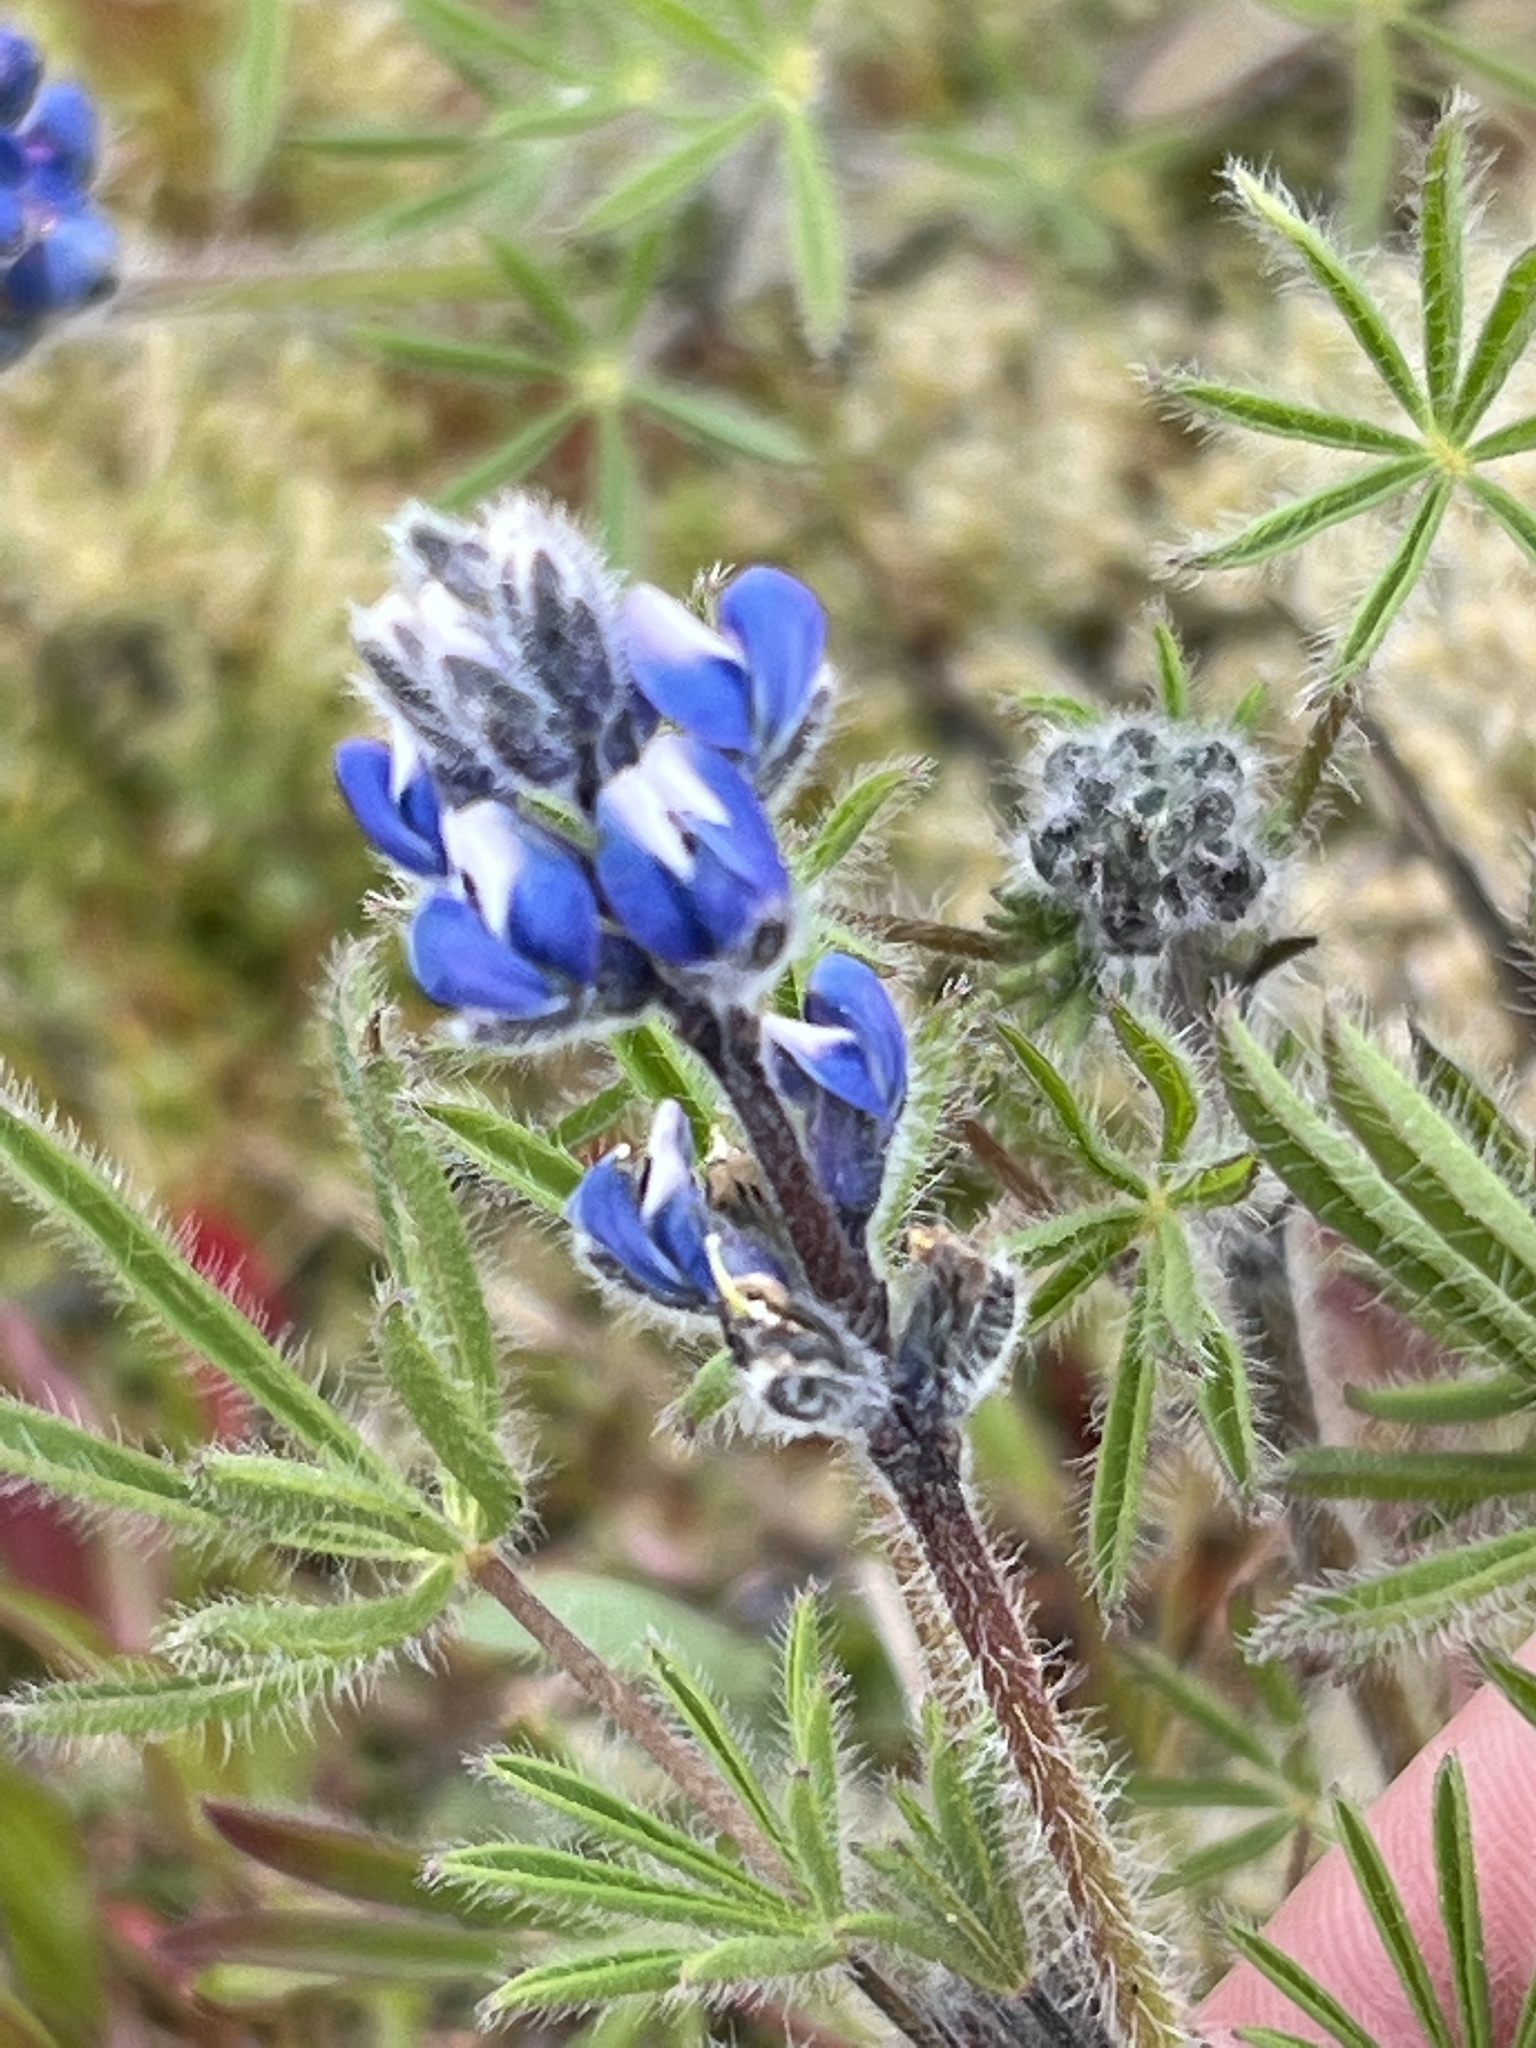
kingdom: Plantae
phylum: Tracheophyta
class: Magnoliopsida
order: Fabales
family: Fabaceae
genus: Lupinus
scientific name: Lupinus bicolor
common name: Miniature lupine
